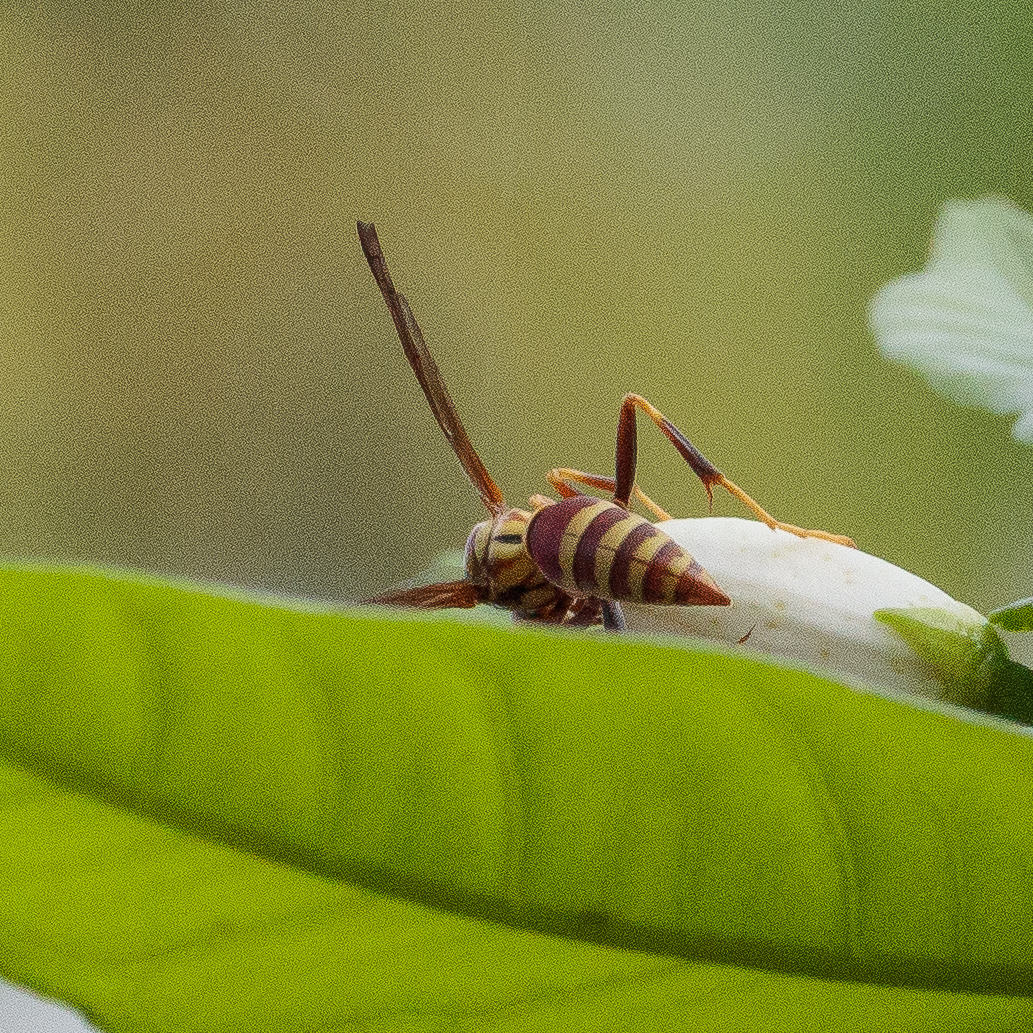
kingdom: Animalia
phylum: Arthropoda
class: Insecta
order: Hymenoptera
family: Eumenidae
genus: Polistes
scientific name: Polistes exclamans
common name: Paper wasp
